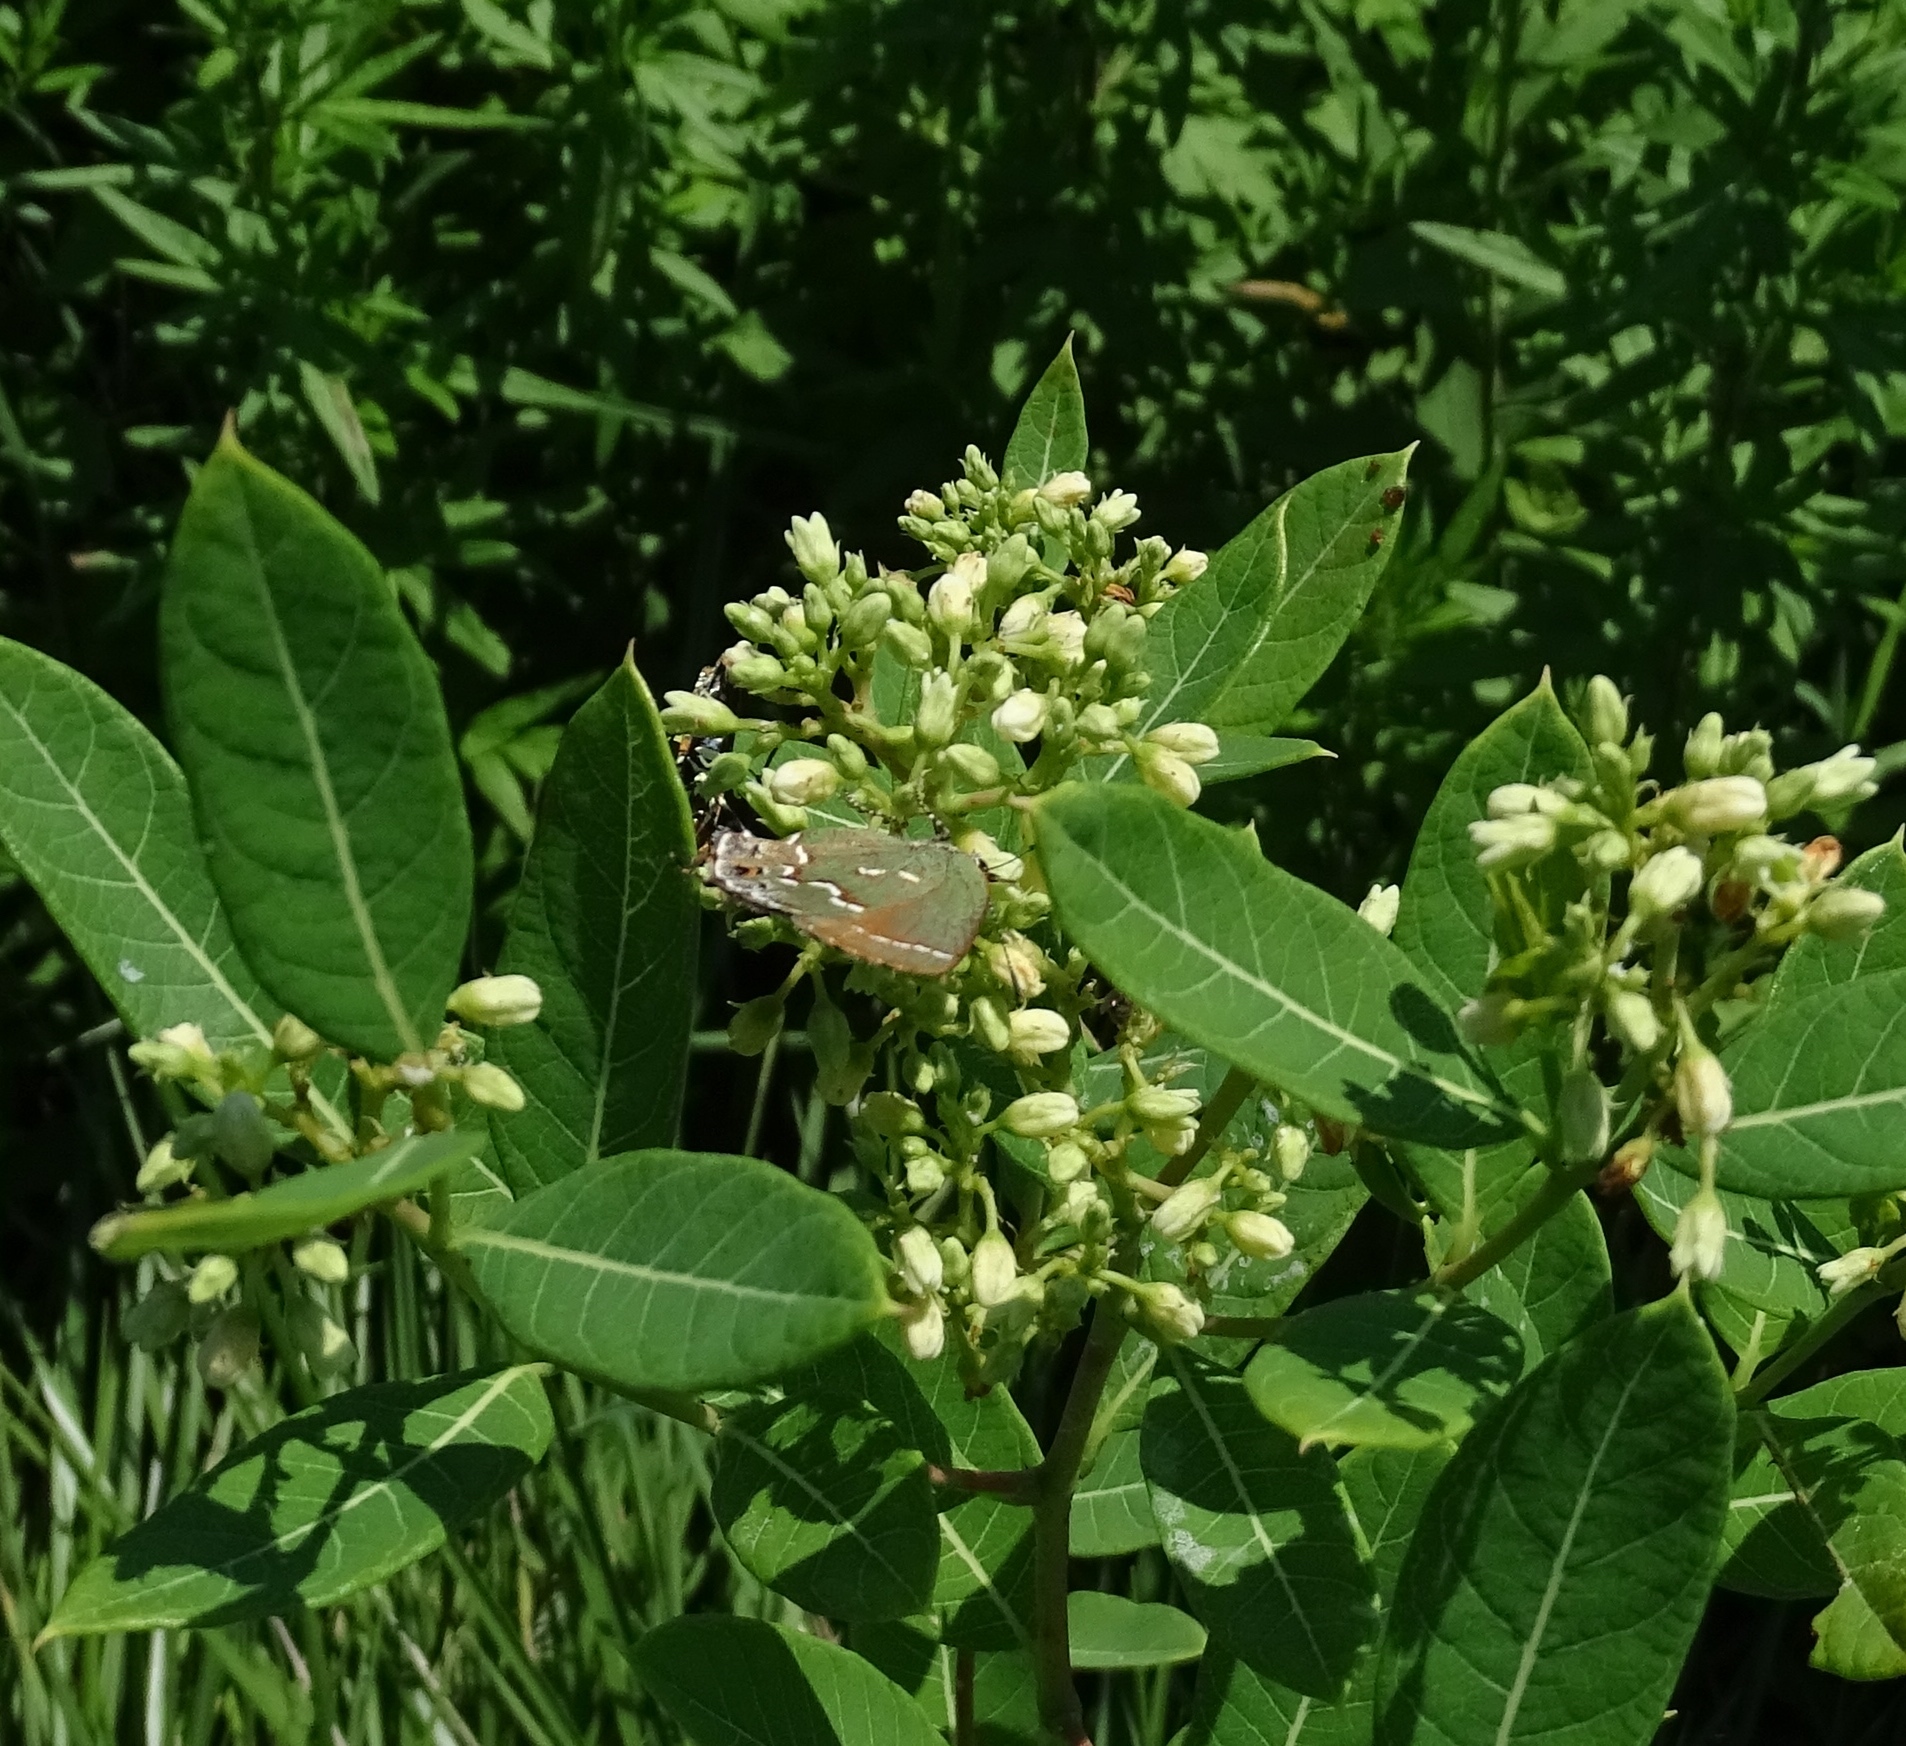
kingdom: Animalia
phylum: Arthropoda
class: Insecta
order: Lepidoptera
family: Lycaenidae
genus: Mitoura
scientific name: Mitoura gryneus
